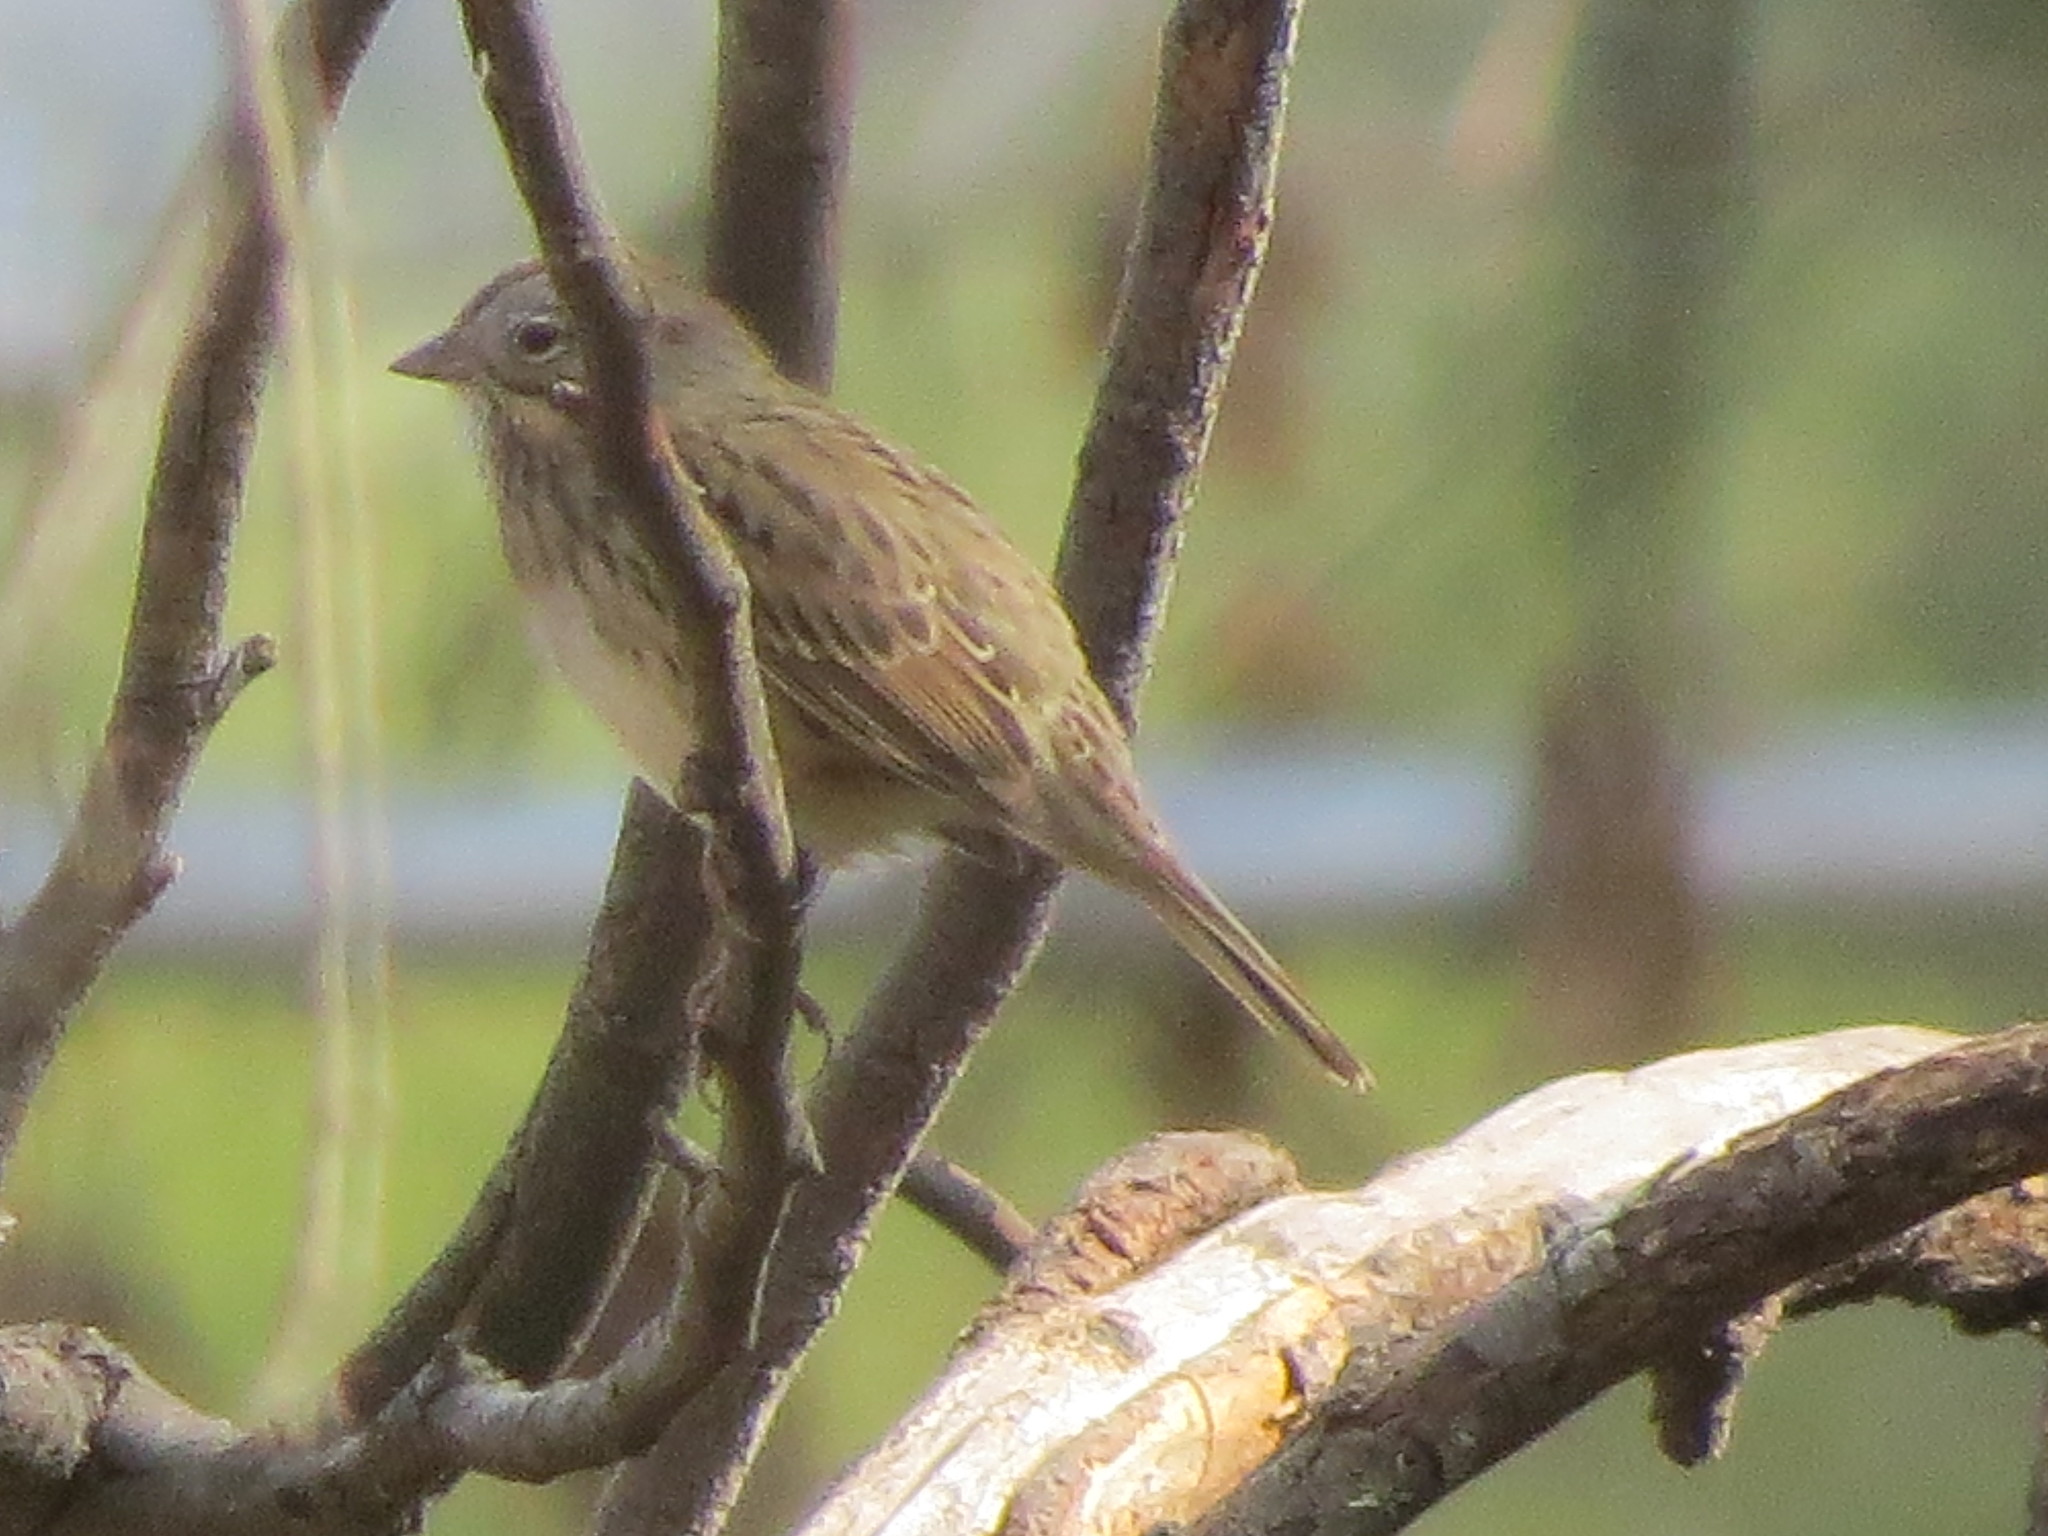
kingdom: Animalia
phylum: Chordata
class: Aves
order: Passeriformes
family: Passerellidae
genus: Melospiza
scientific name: Melospiza lincolnii
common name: Lincoln's sparrow
